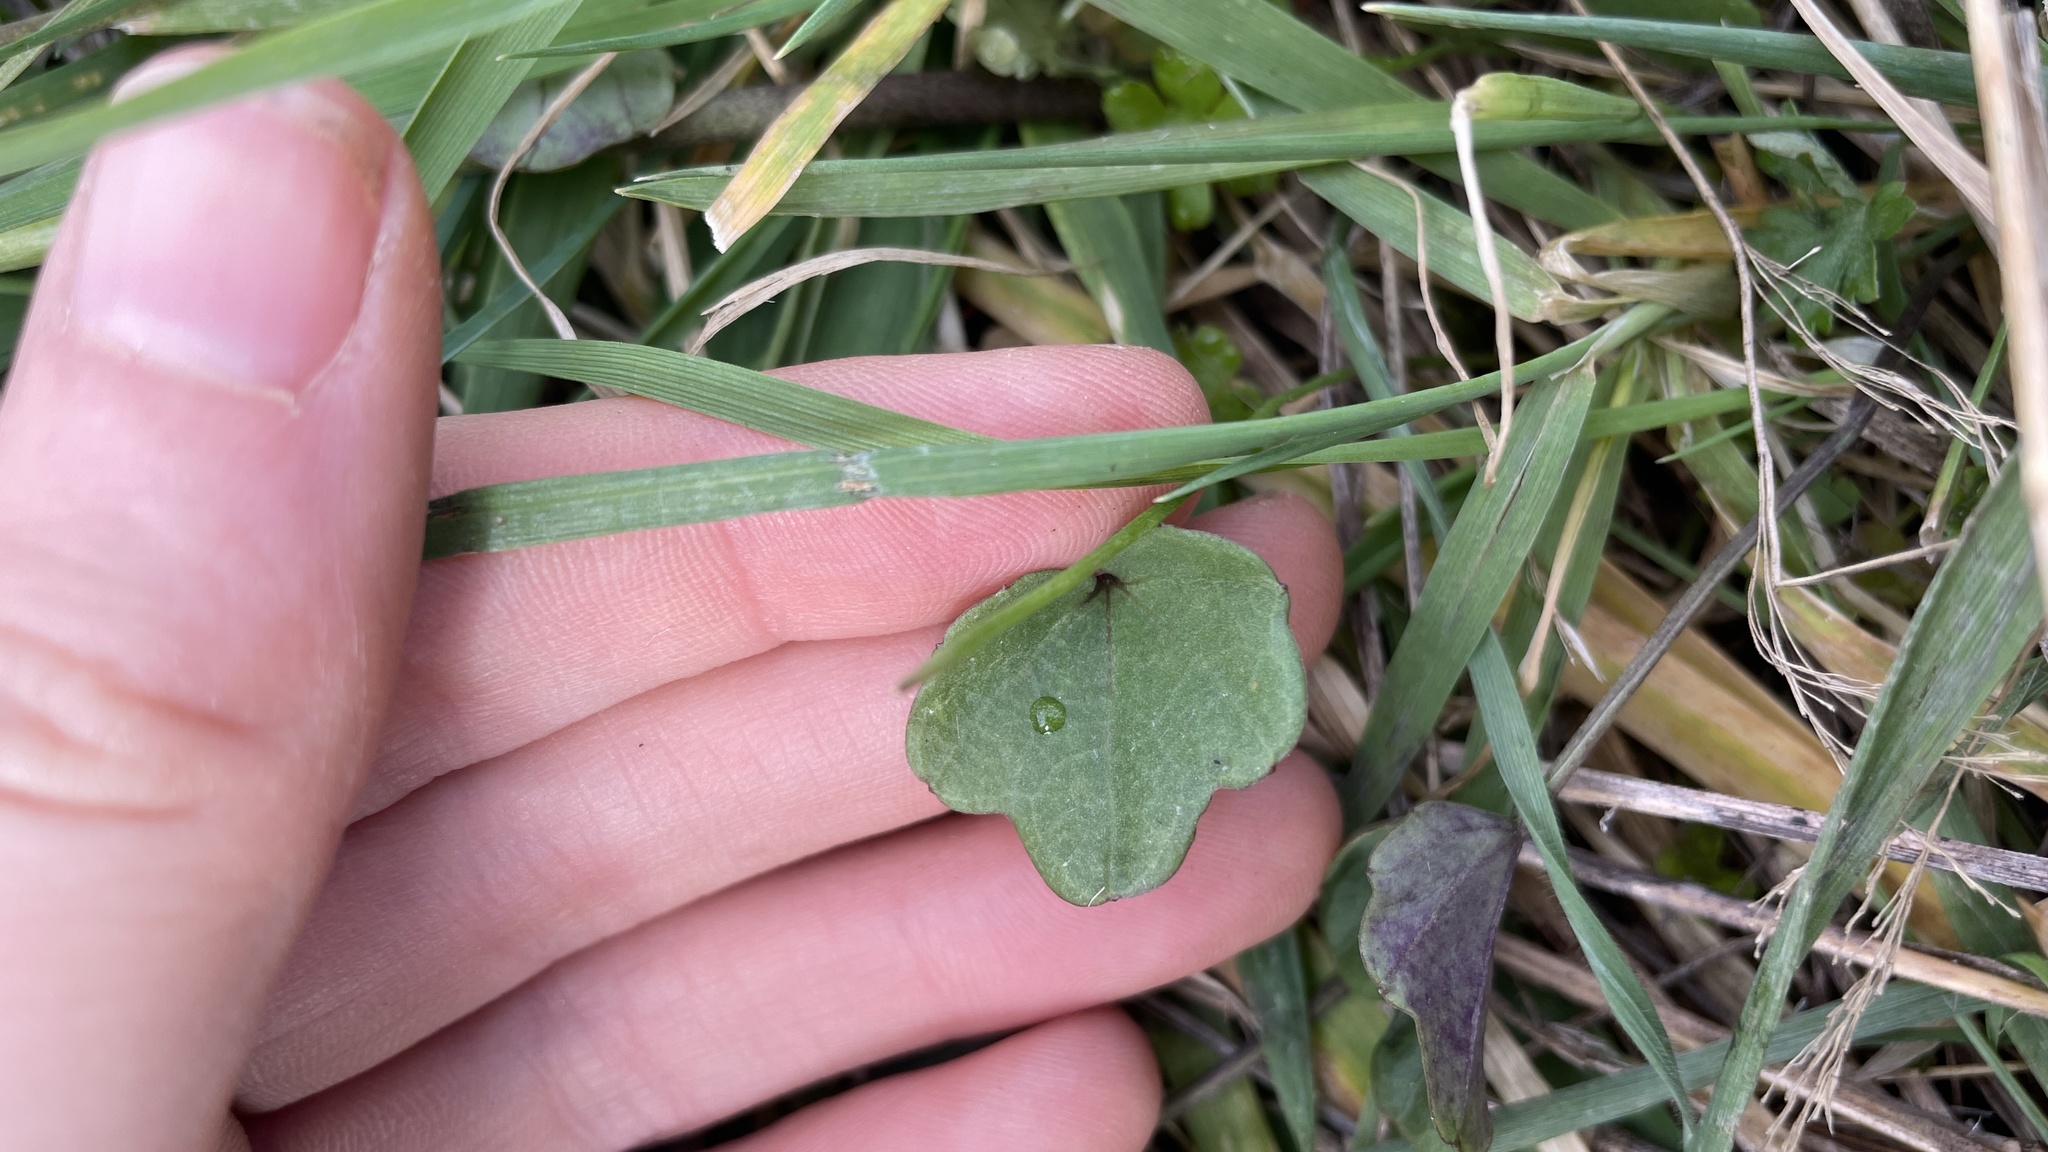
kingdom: Plantae
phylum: Tracheophyta
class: Magnoliopsida
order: Brassicales
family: Brassicaceae
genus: Cardamine
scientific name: Cardamine nuttallii
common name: Nuttall's toothwort
